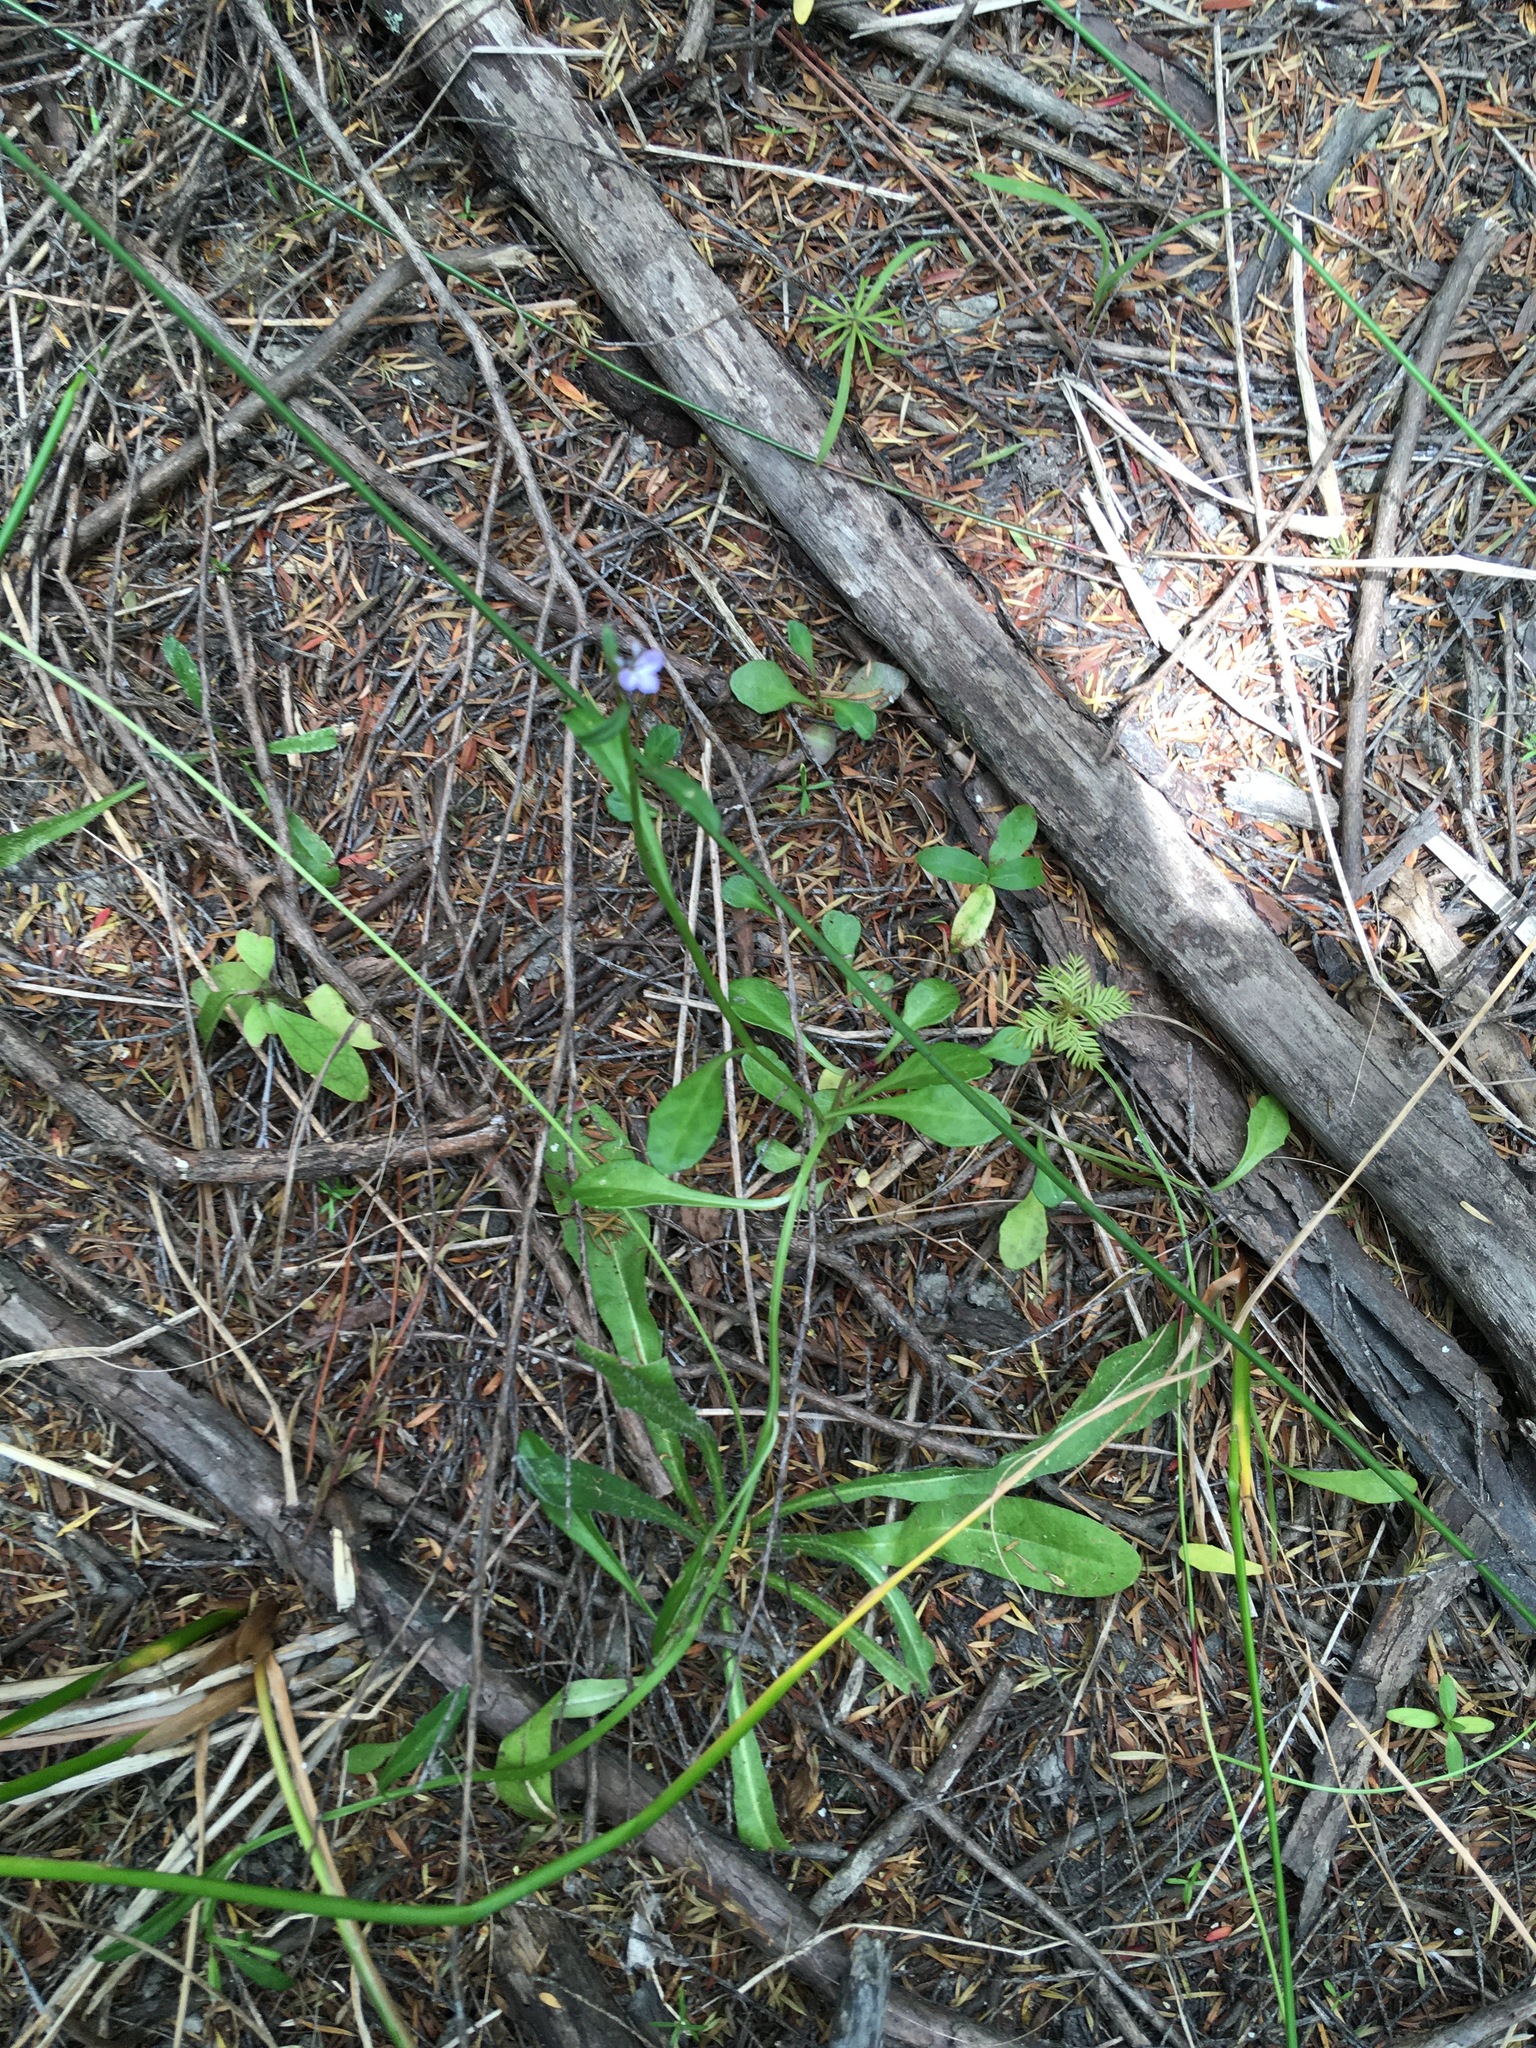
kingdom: Plantae
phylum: Tracheophyta
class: Pinopsida
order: Pinales
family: Podocarpaceae
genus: Dacrycarpus
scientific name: Dacrycarpus dacrydioides
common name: White pine
